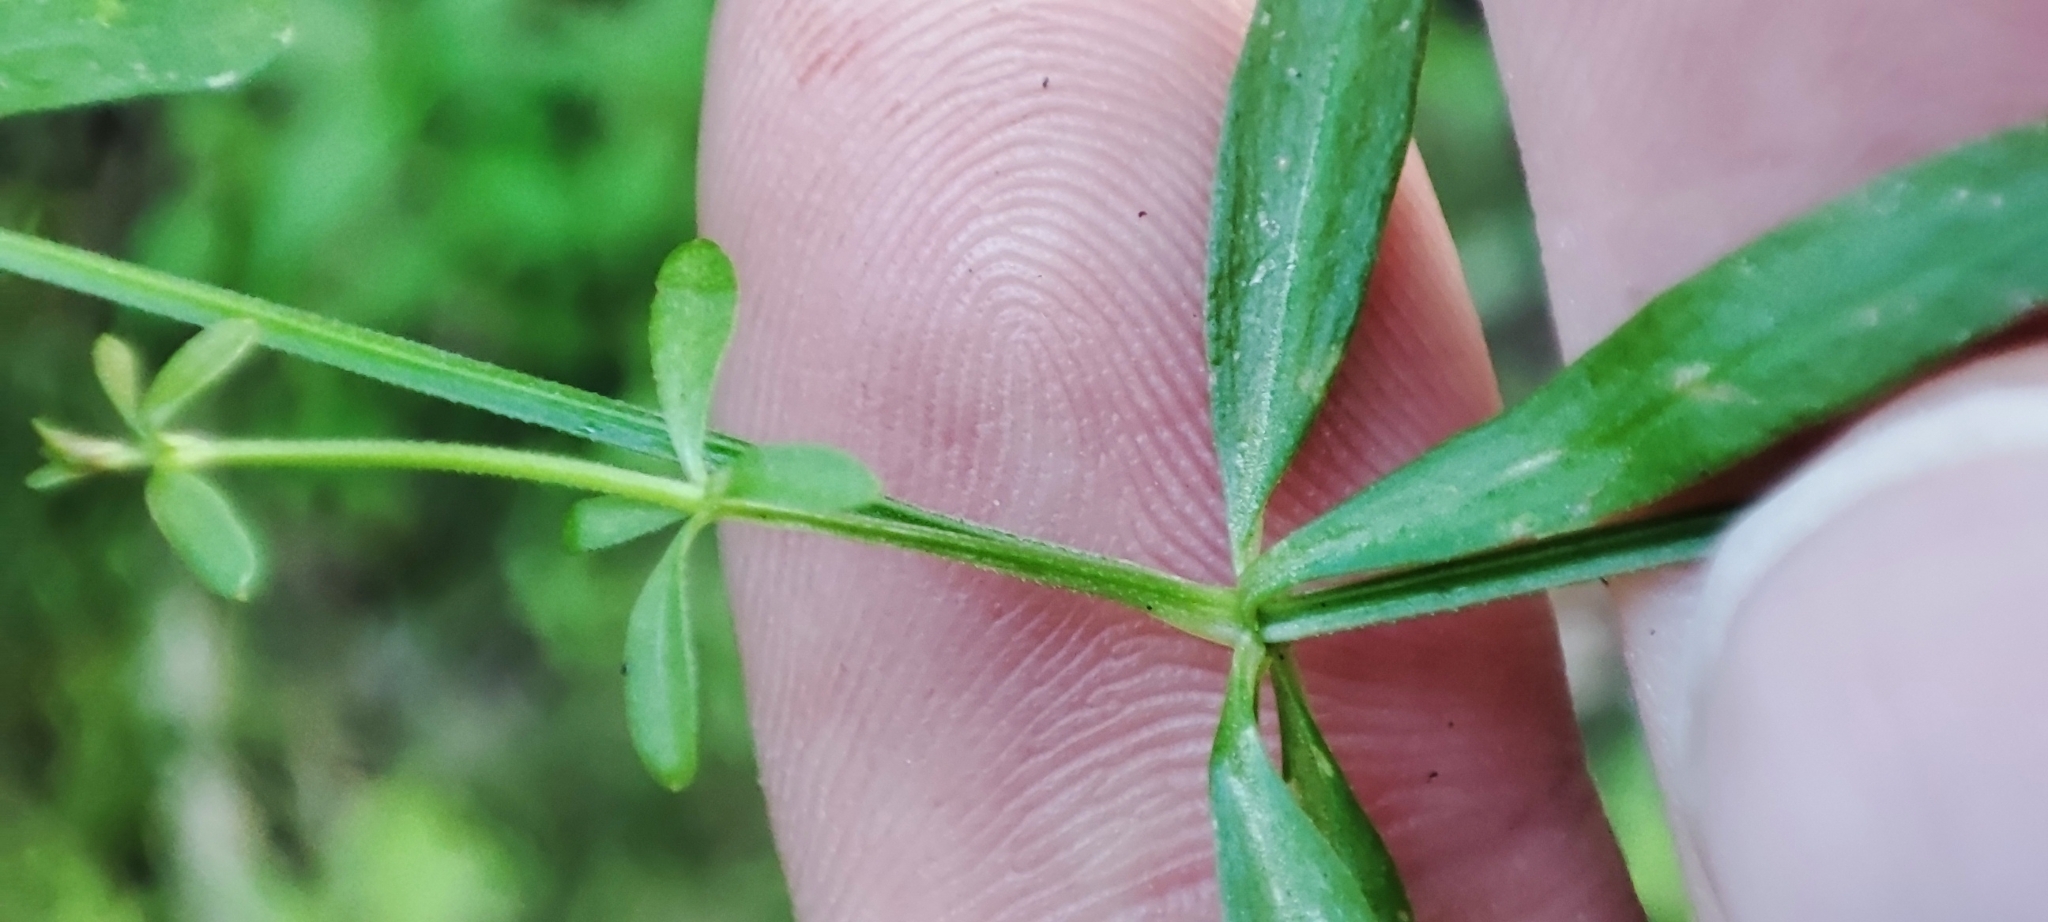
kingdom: Plantae
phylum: Tracheophyta
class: Magnoliopsida
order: Gentianales
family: Rubiaceae
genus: Galium
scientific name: Galium palustre
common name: Common marsh-bedstraw
